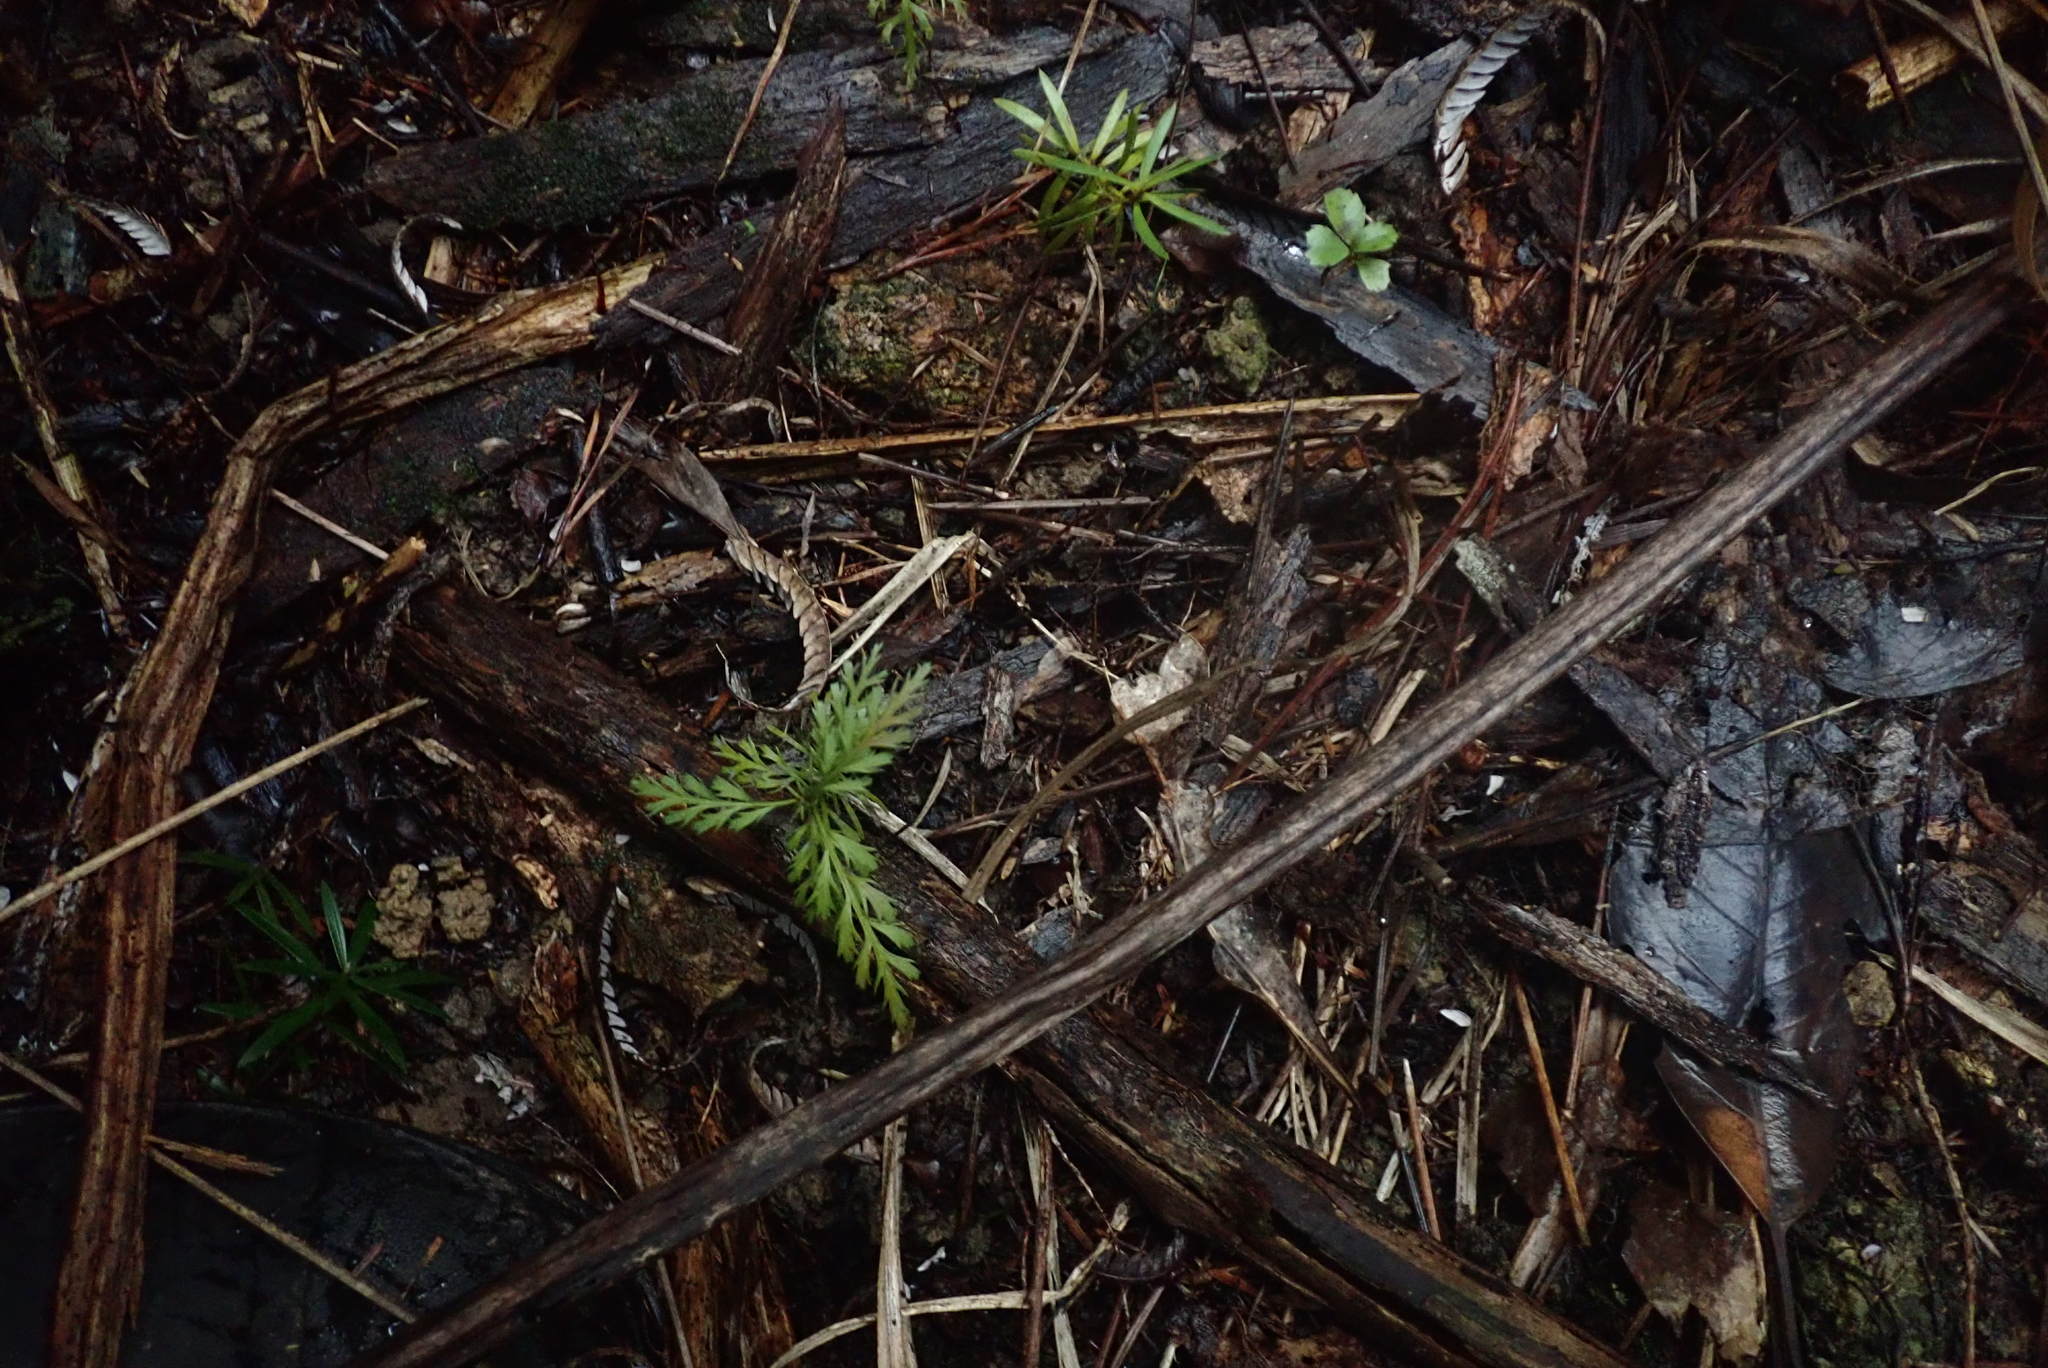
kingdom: Plantae
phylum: Tracheophyta
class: Pinopsida
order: Pinales
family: Phyllocladaceae
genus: Phyllocladus
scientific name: Phyllocladus trichomanoides
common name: Celery pine
